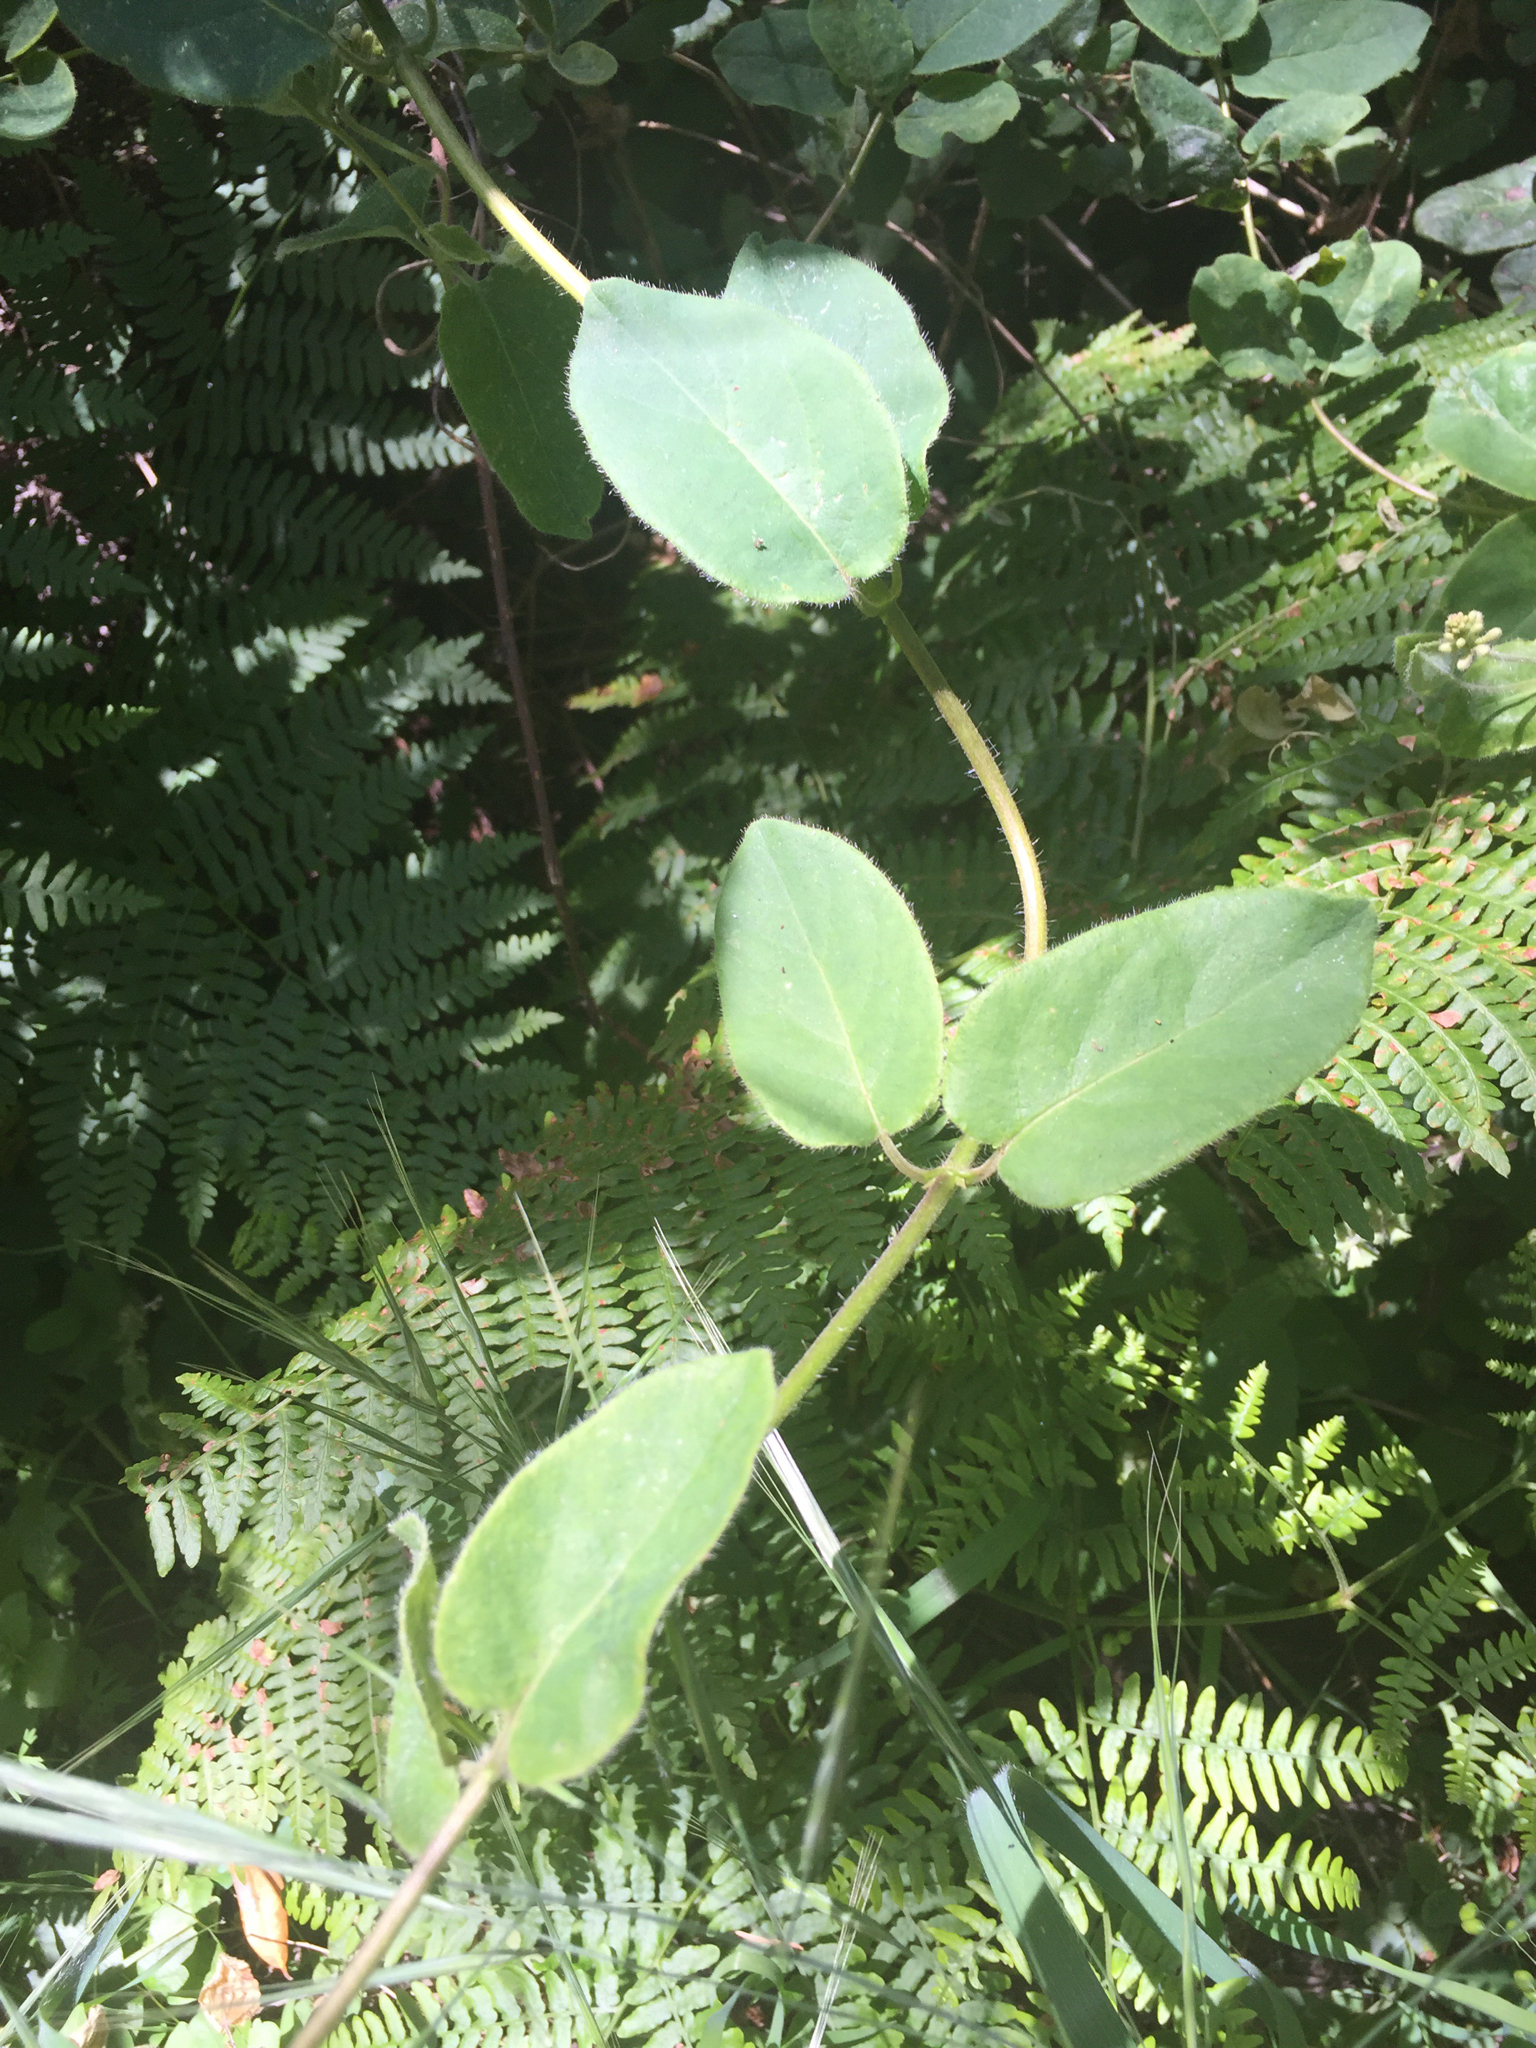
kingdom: Plantae
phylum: Tracheophyta
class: Magnoliopsida
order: Dipsacales
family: Caprifoliaceae
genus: Lonicera
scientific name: Lonicera hispidula
